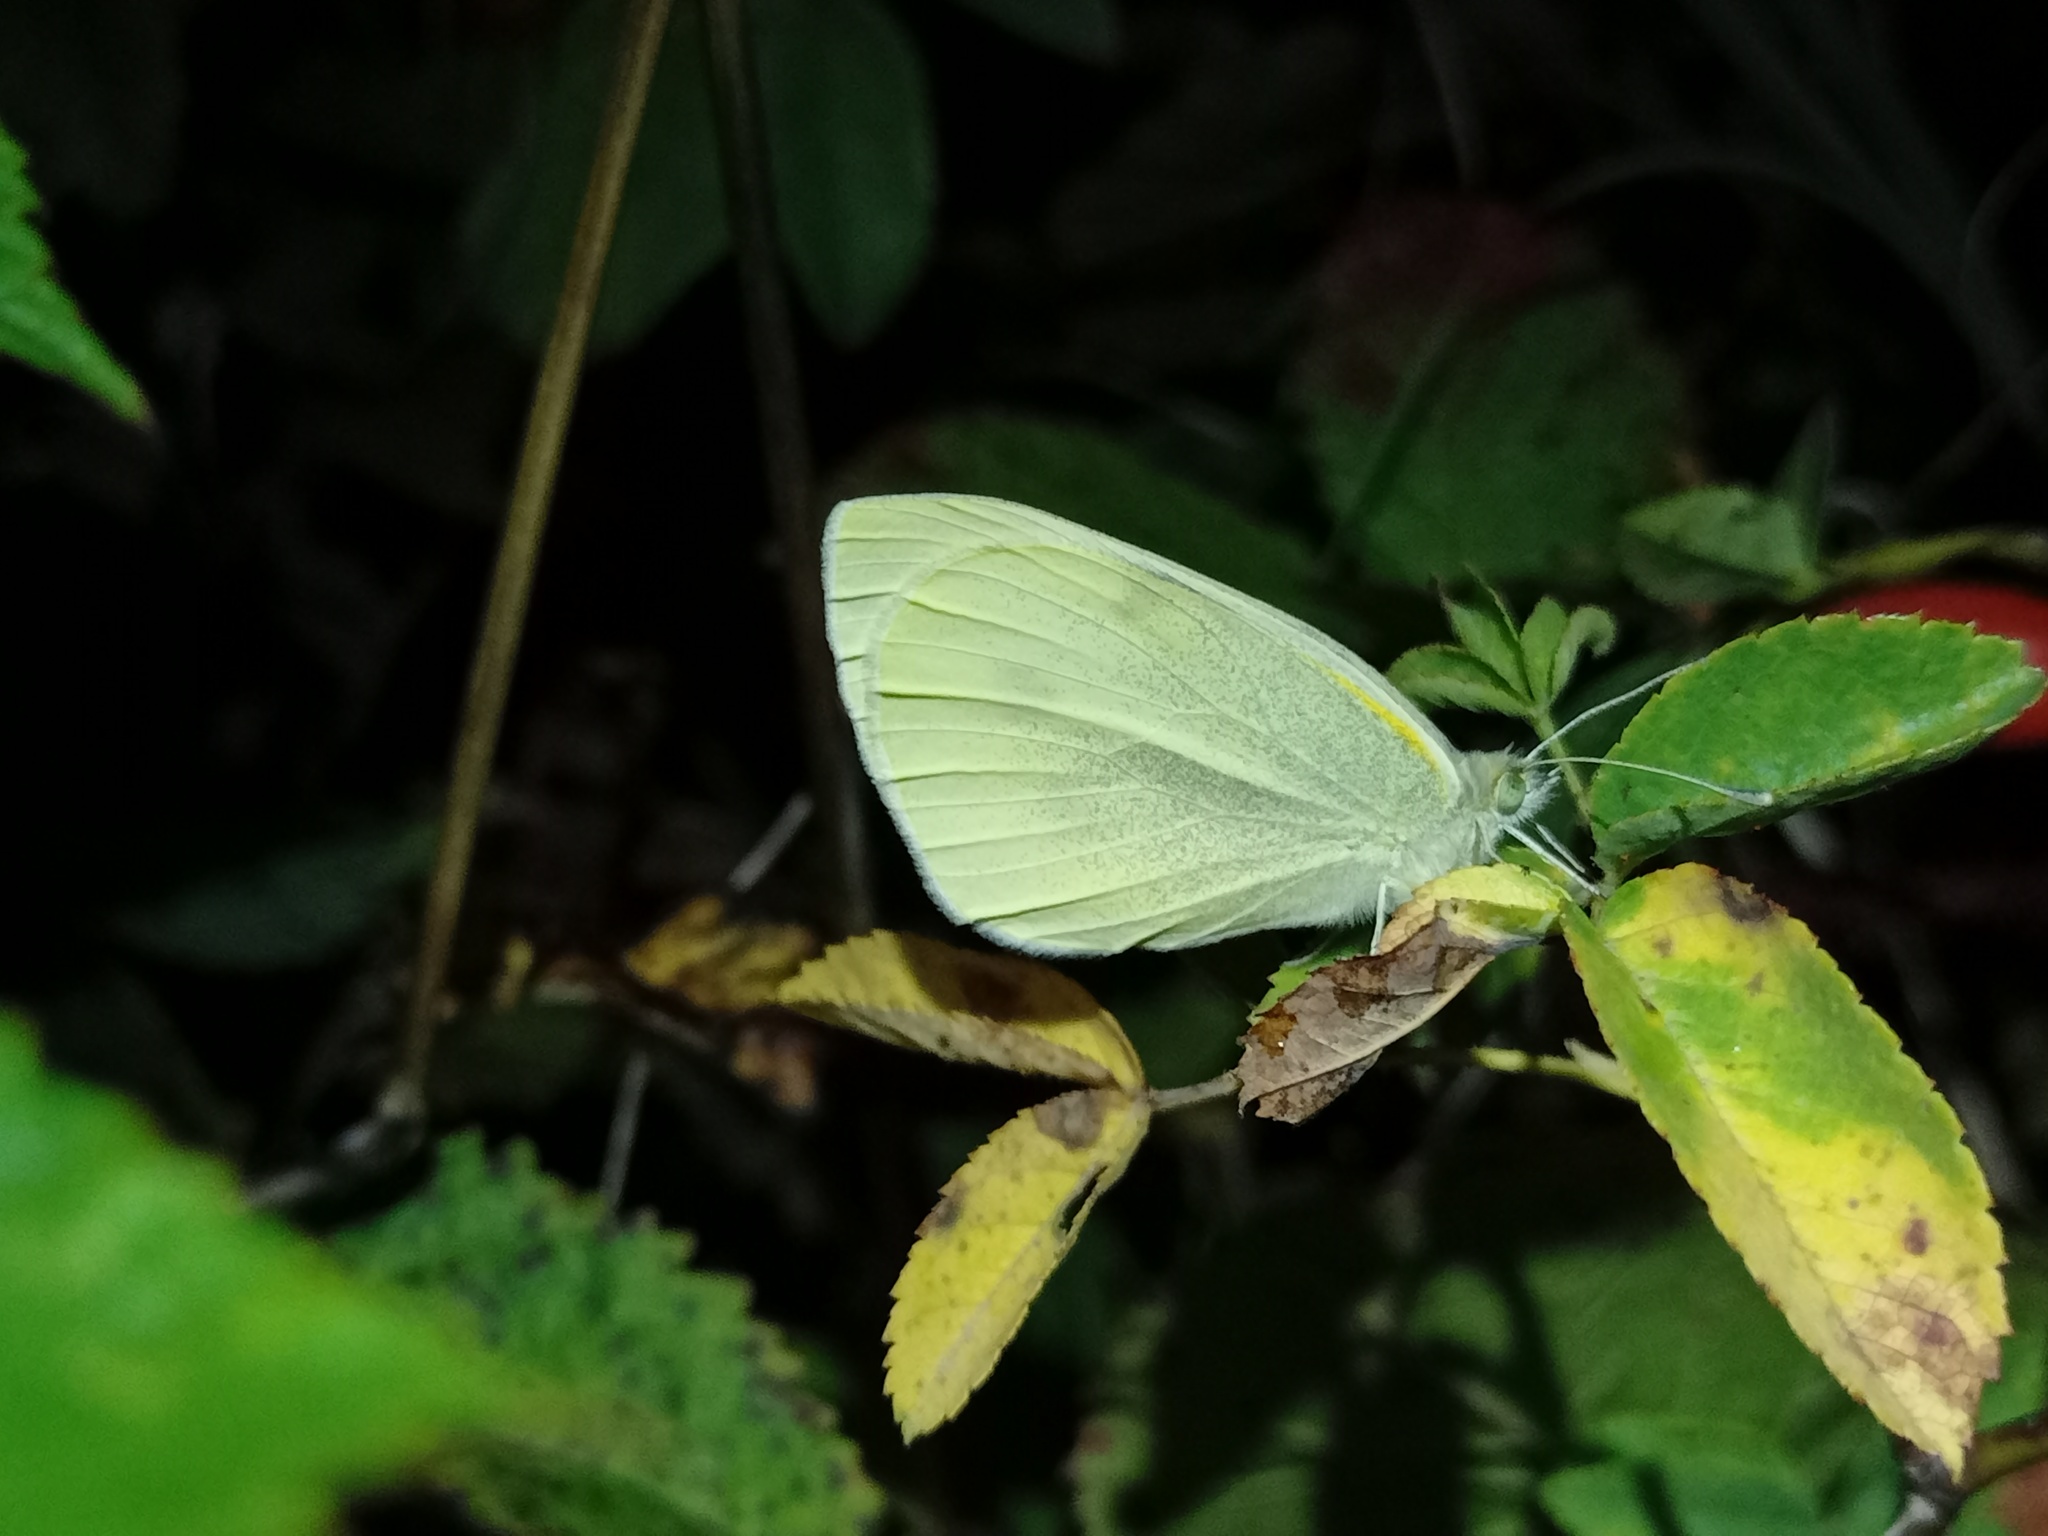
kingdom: Animalia
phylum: Arthropoda
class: Insecta
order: Lepidoptera
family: Pieridae
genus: Pieris
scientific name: Pieris rapae
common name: Small white
